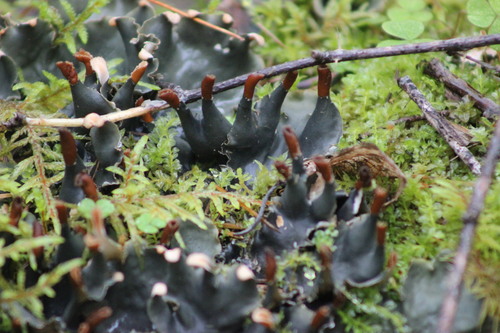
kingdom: Fungi
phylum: Ascomycota
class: Lecanoromycetes
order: Peltigerales
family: Peltigeraceae
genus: Peltigera
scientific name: Peltigera polydactylon
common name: Many-fruited pelt lichen
